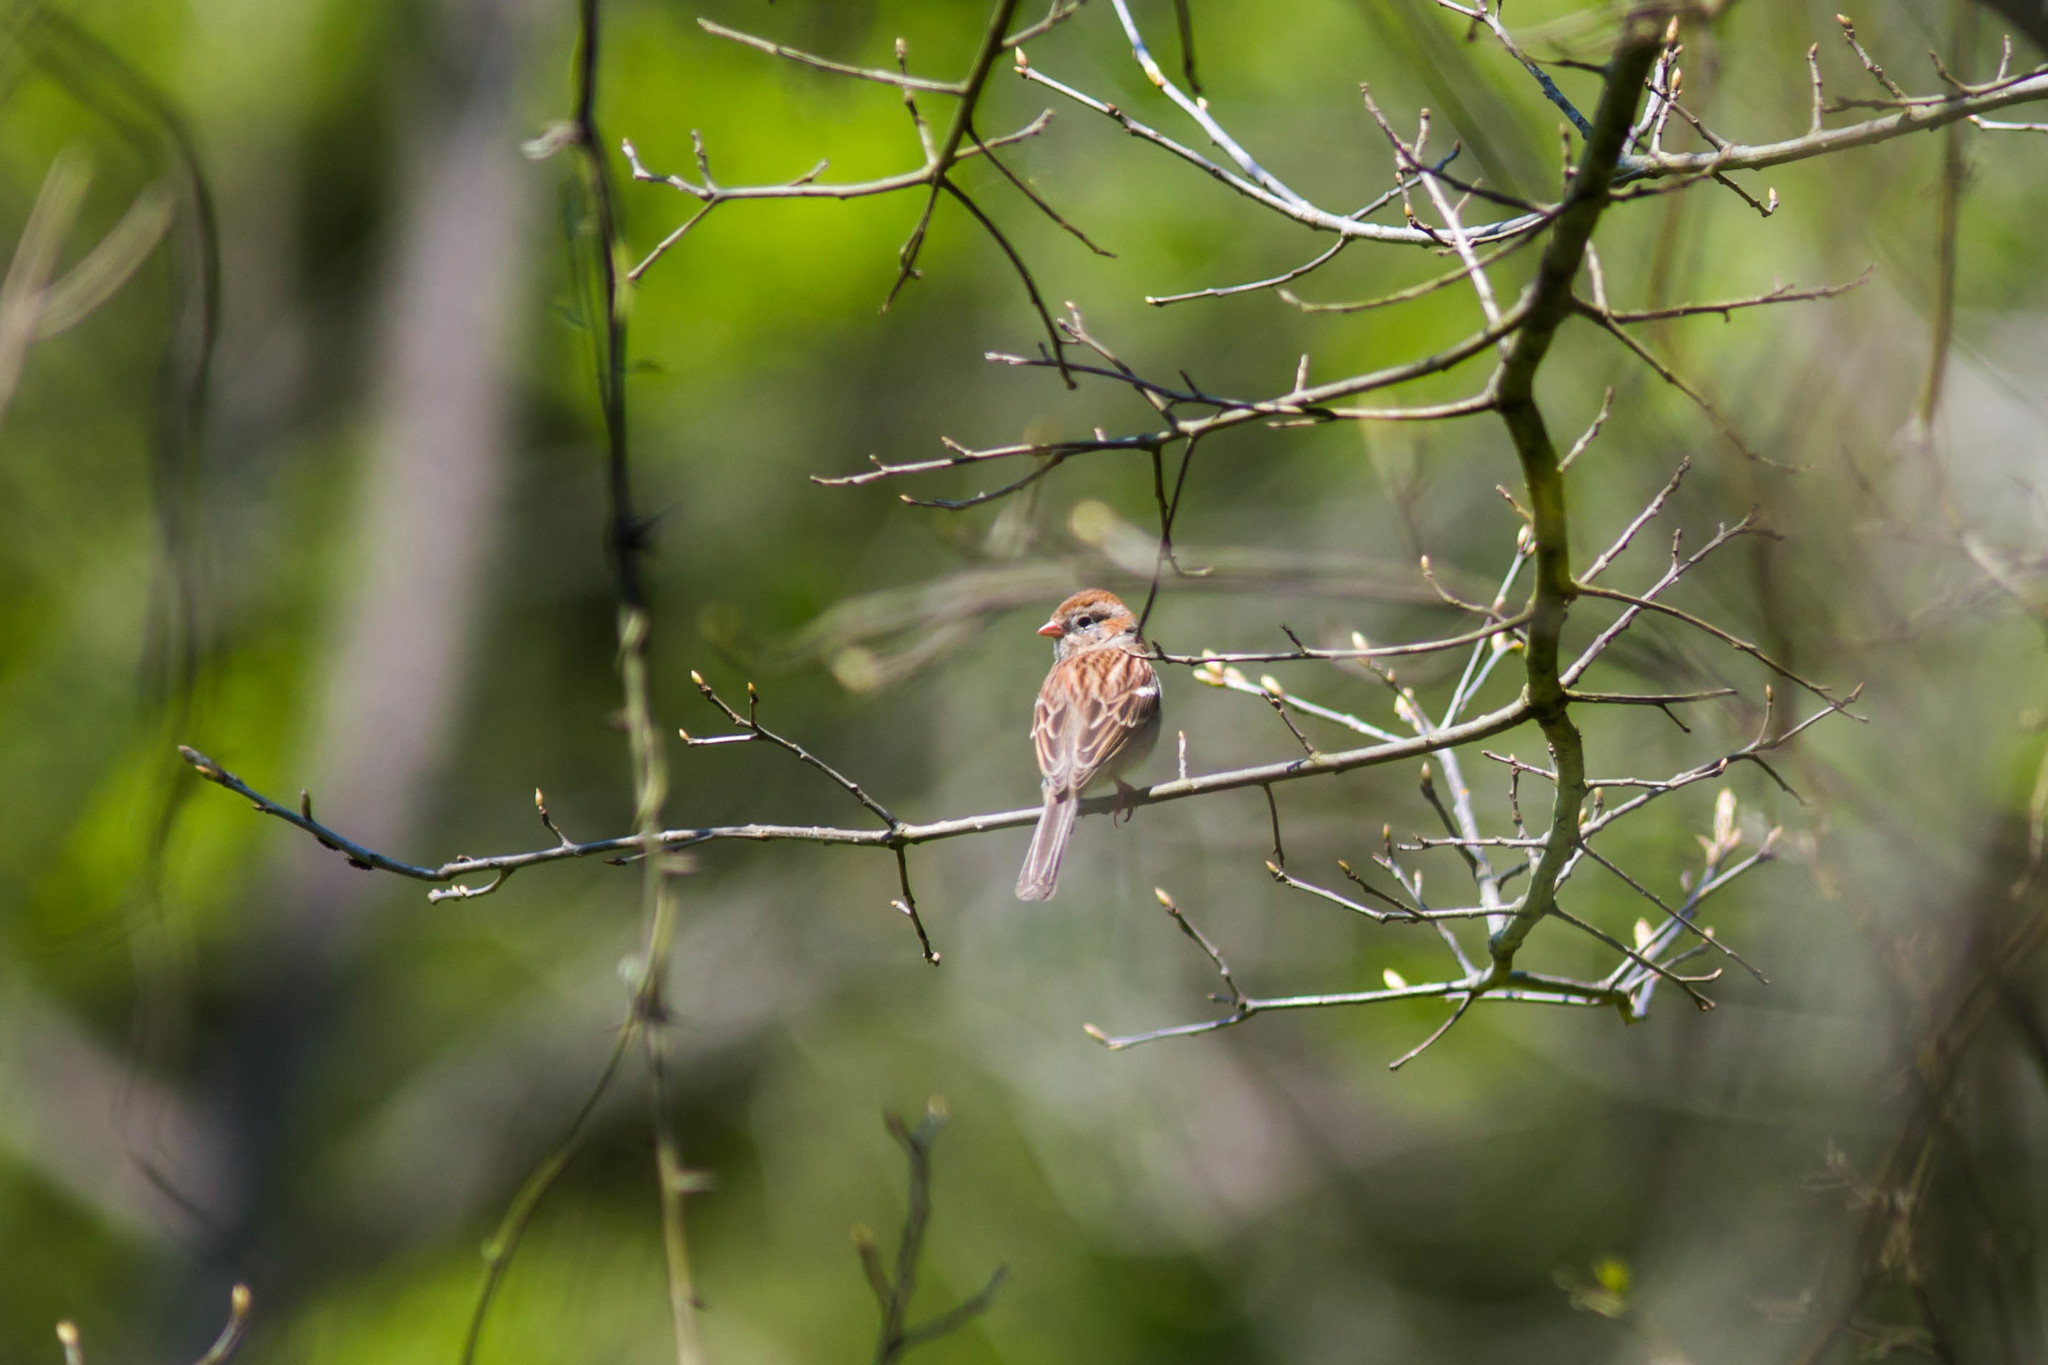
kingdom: Animalia
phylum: Chordata
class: Aves
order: Passeriformes
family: Passerellidae
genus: Spizella
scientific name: Spizella pusilla
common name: Field sparrow
